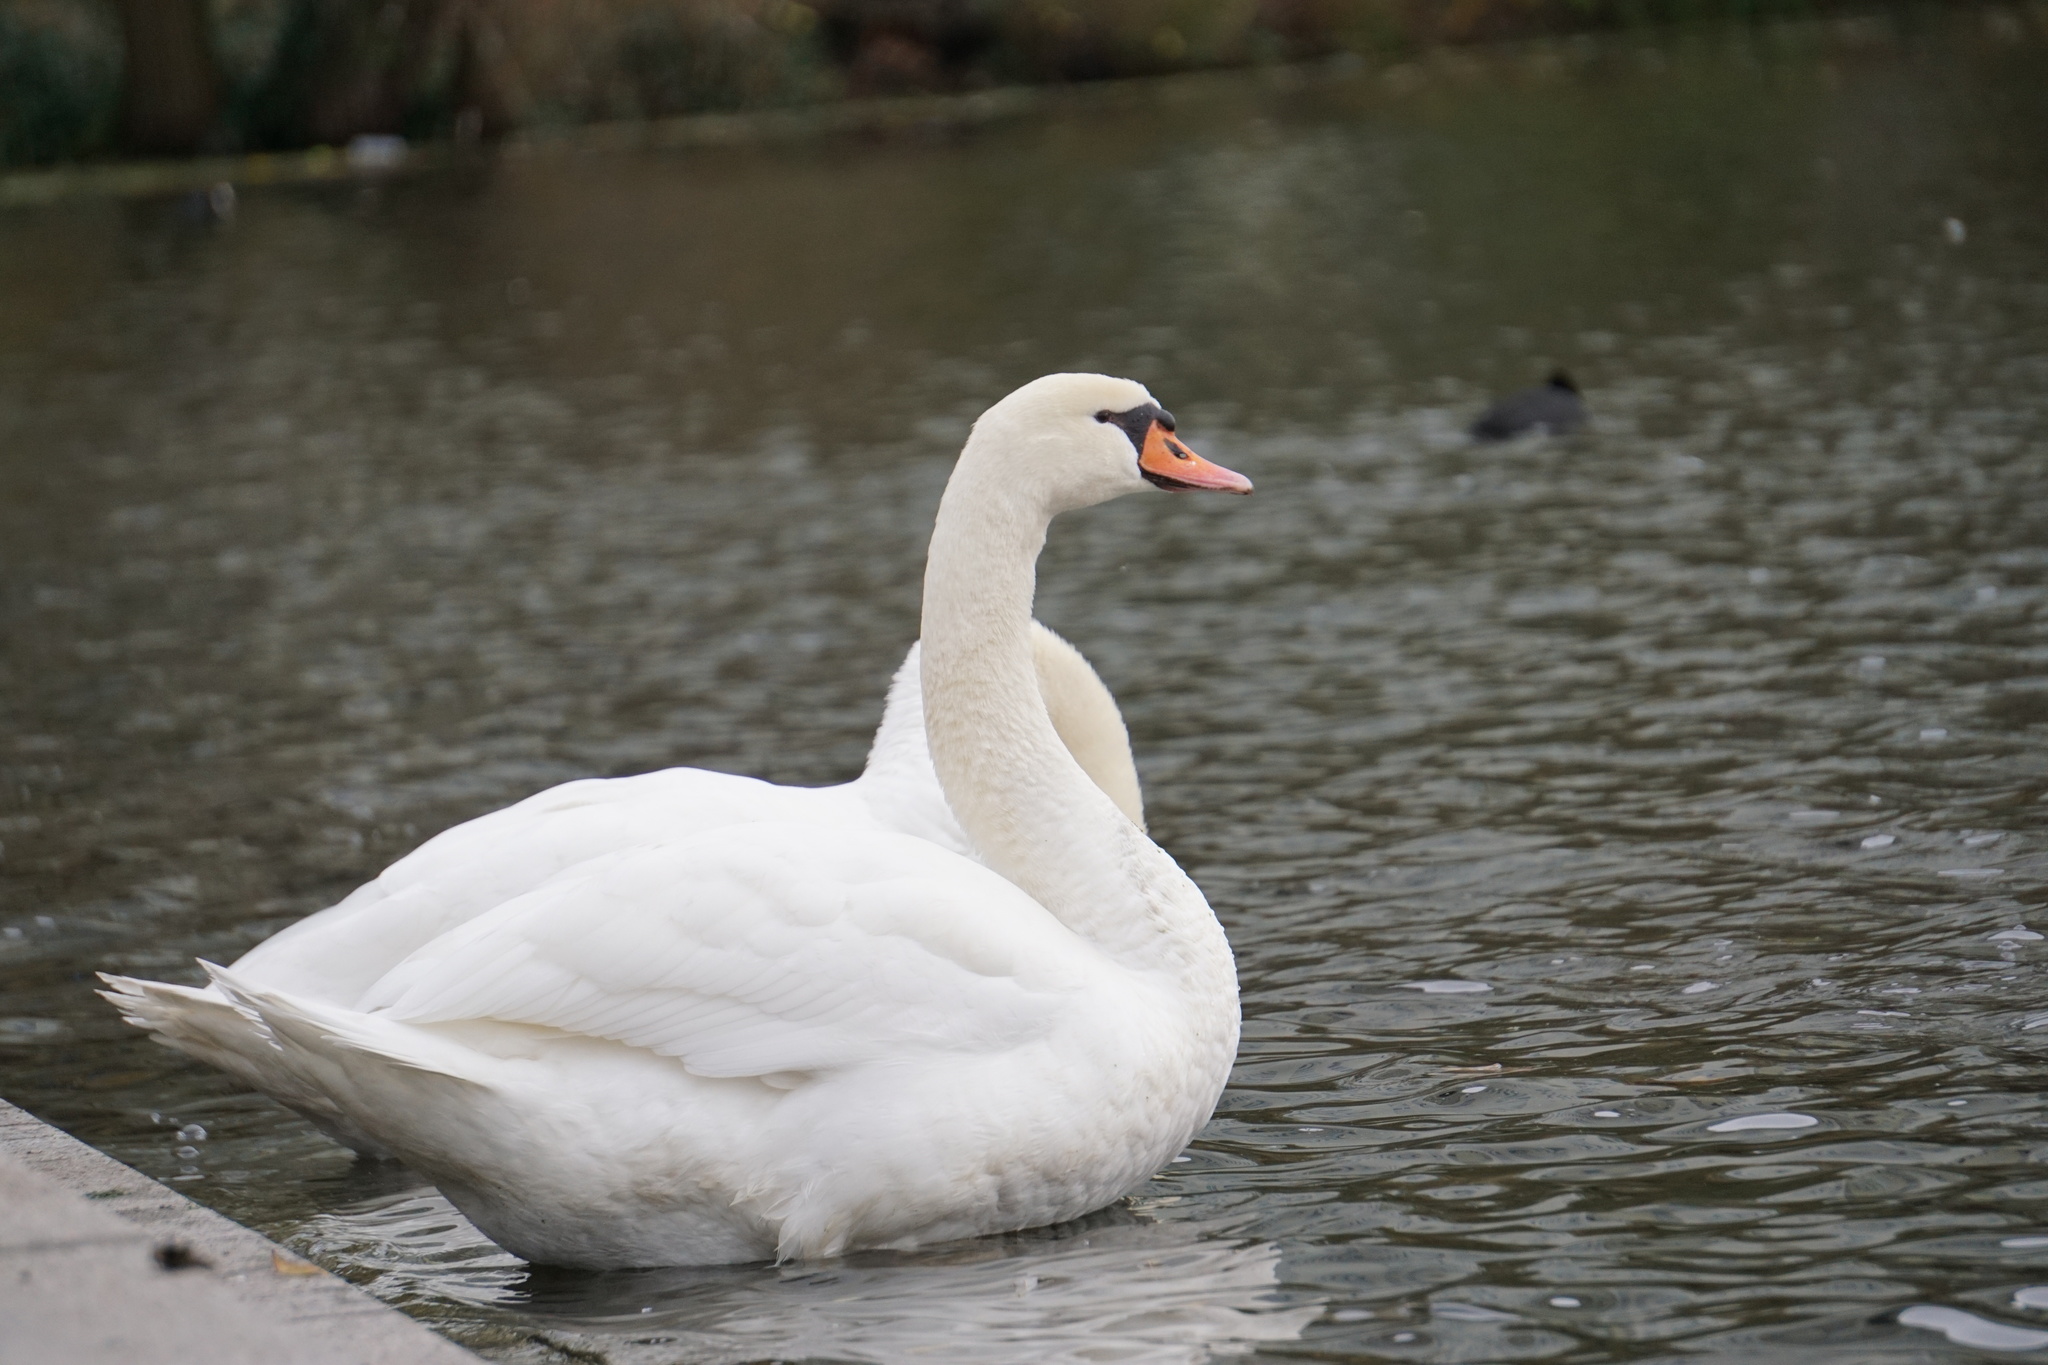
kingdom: Animalia
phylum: Chordata
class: Aves
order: Anseriformes
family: Anatidae
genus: Cygnus
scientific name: Cygnus olor
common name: Mute swan
